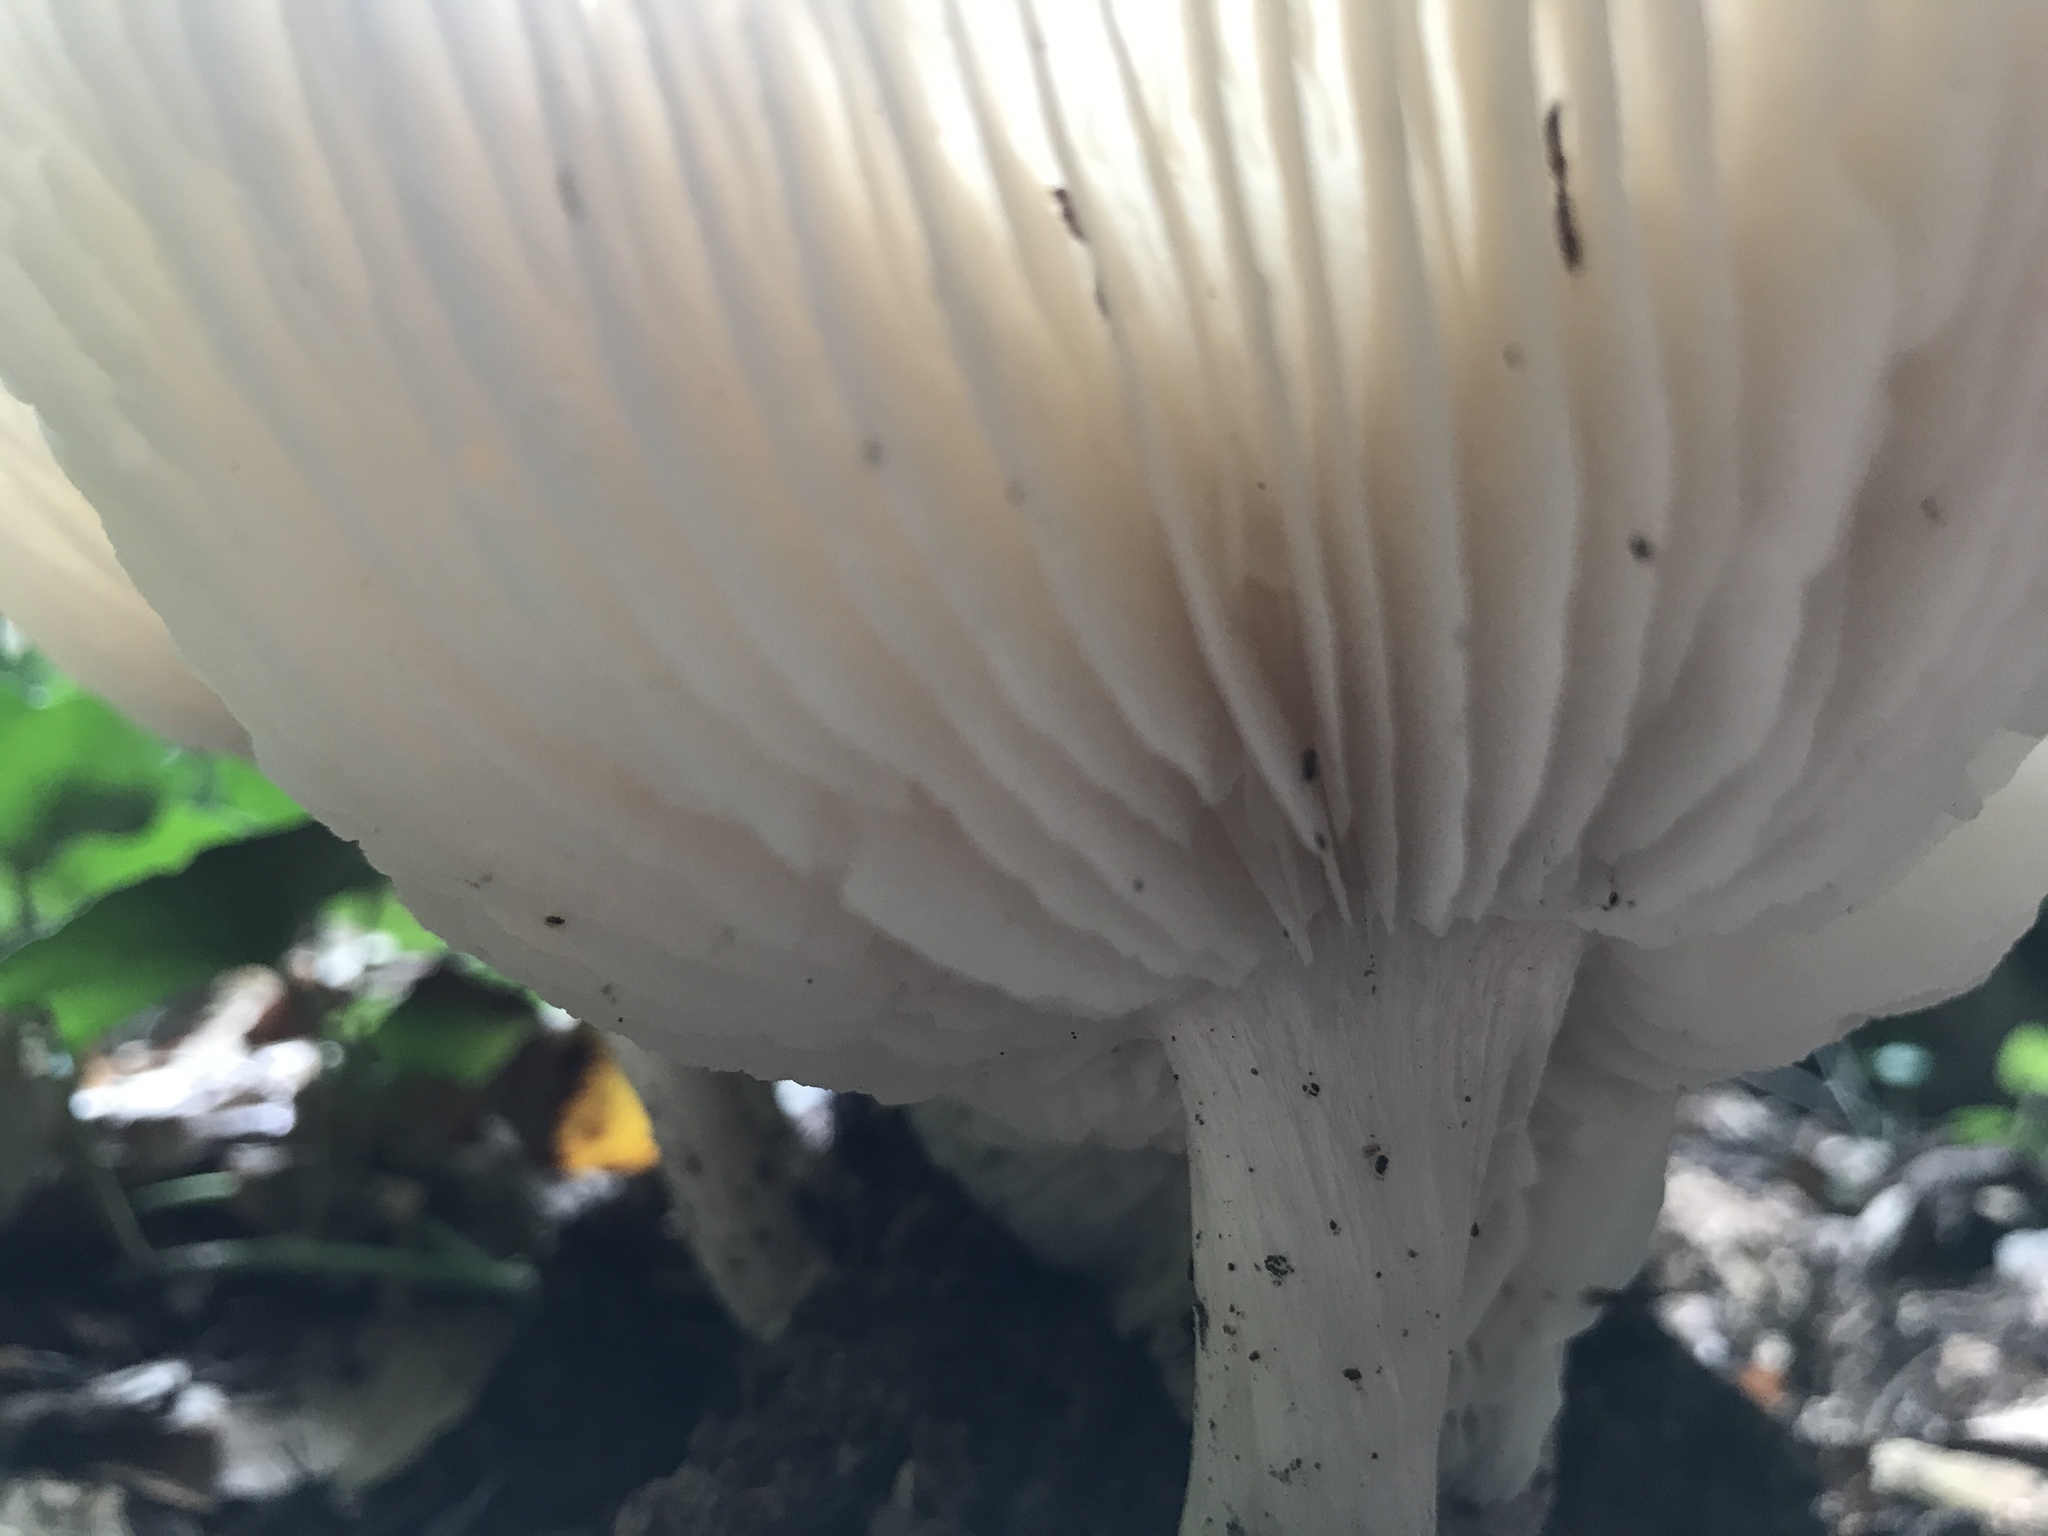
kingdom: Fungi
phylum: Basidiomycota
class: Agaricomycetes
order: Agaricales
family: Tricholomataceae
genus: Megacollybia
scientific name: Megacollybia rodmanii
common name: Eastern american platterful mushroom
